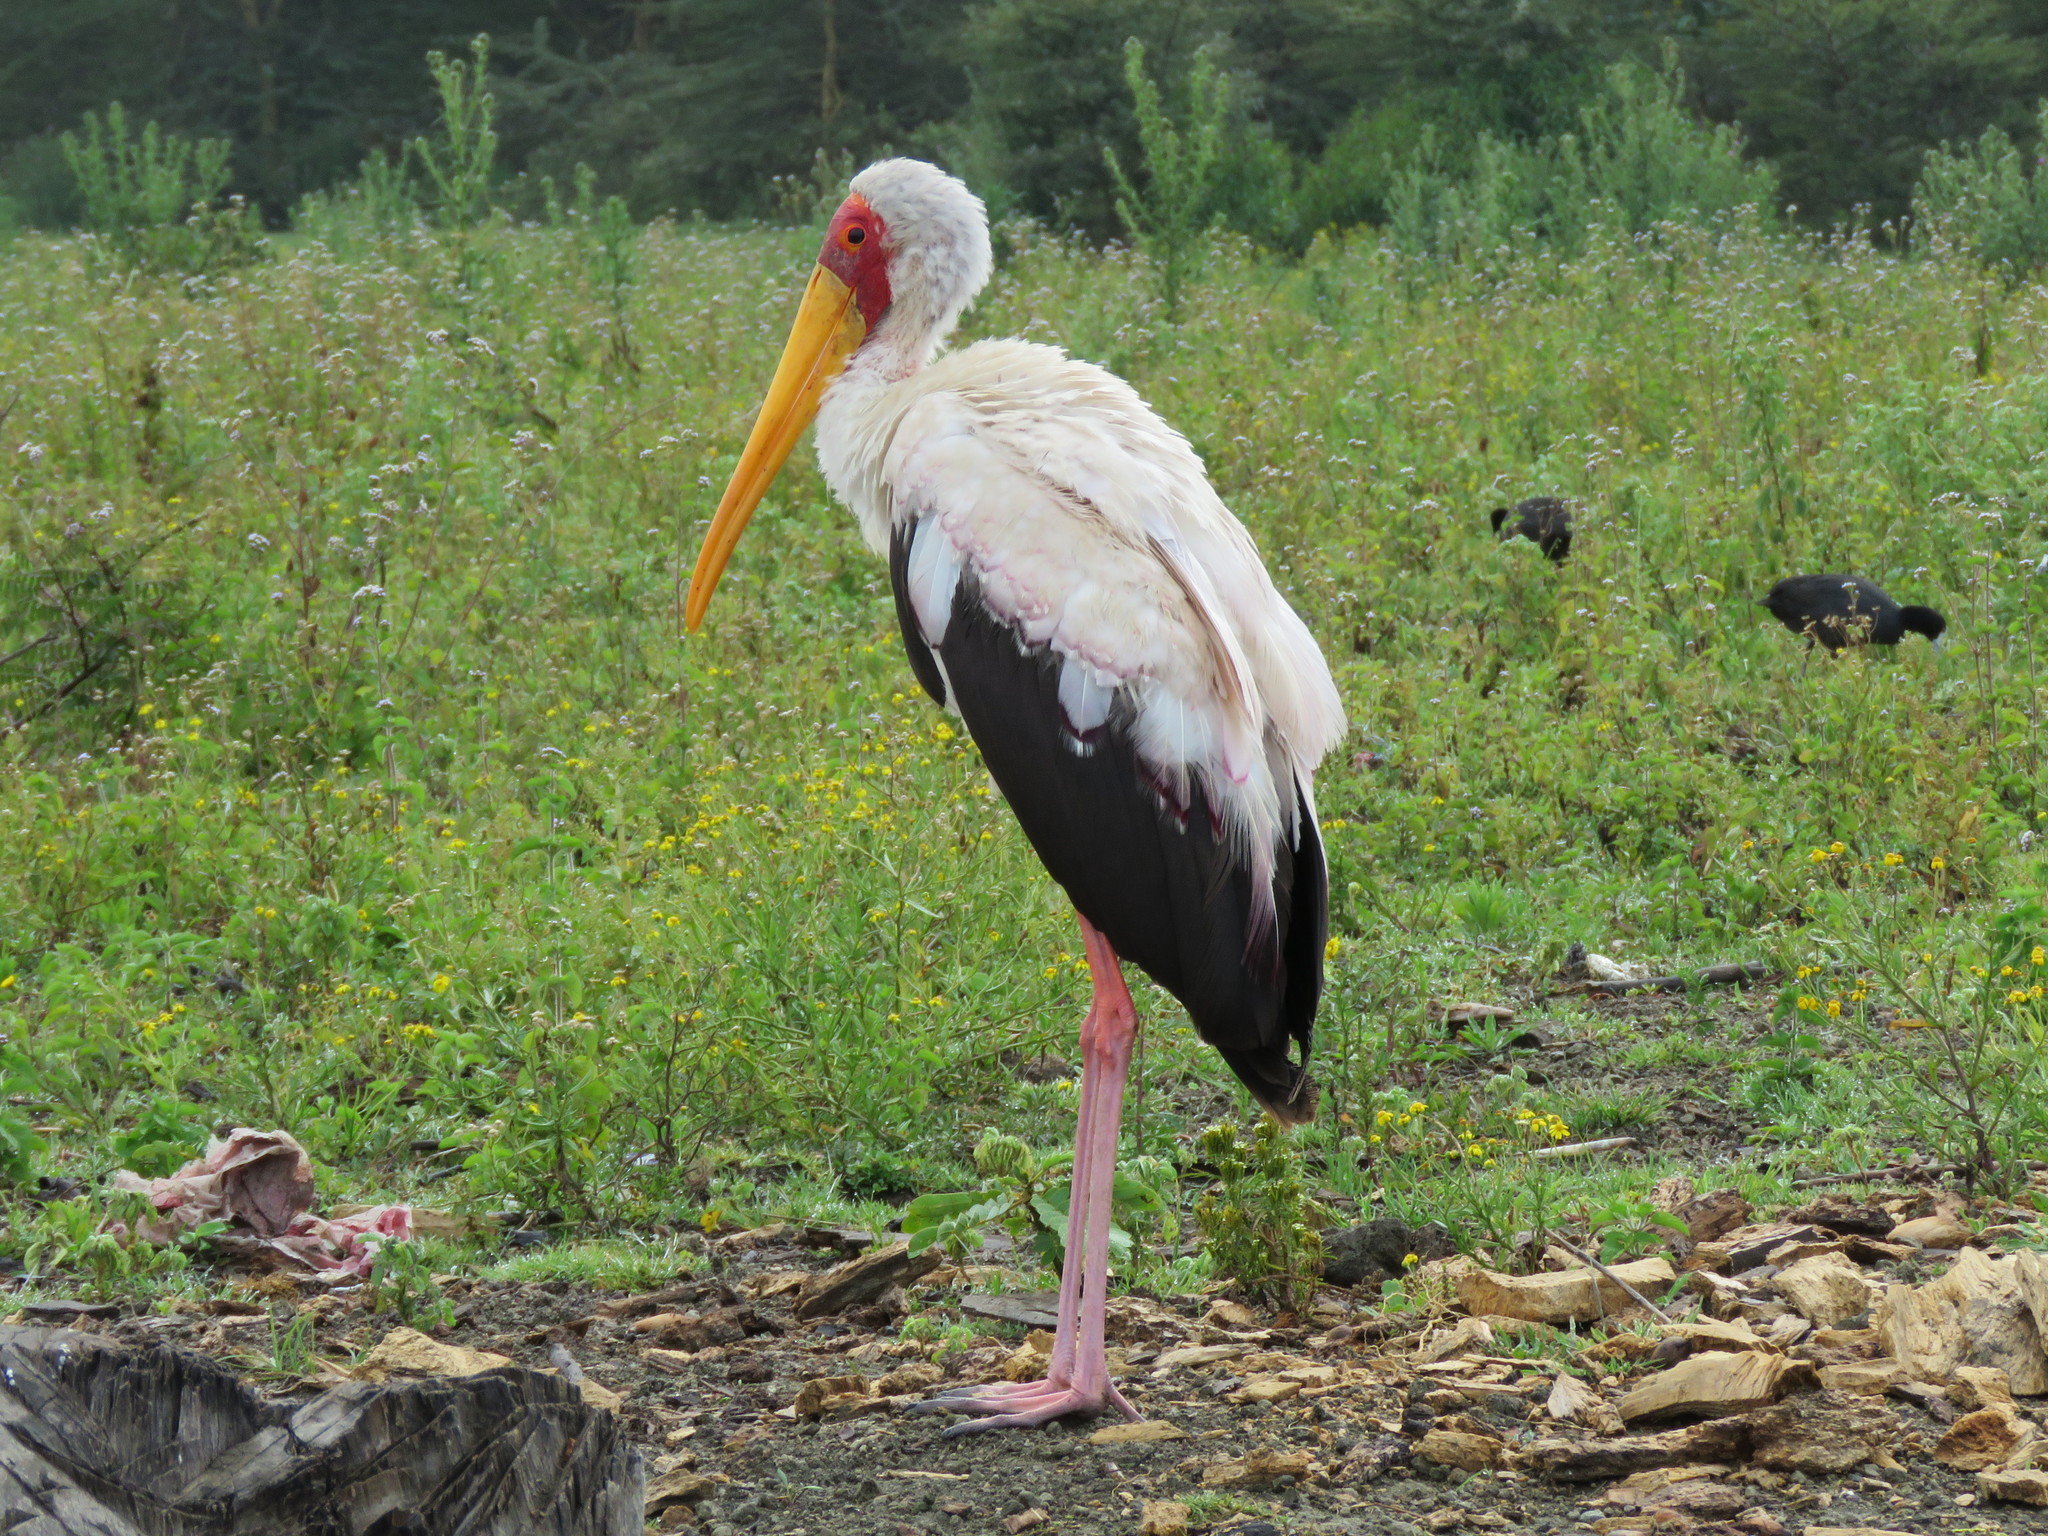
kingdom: Animalia
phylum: Chordata
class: Aves
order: Ciconiiformes
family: Ciconiidae
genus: Mycteria
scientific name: Mycteria ibis
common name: Yellow-billed stork
